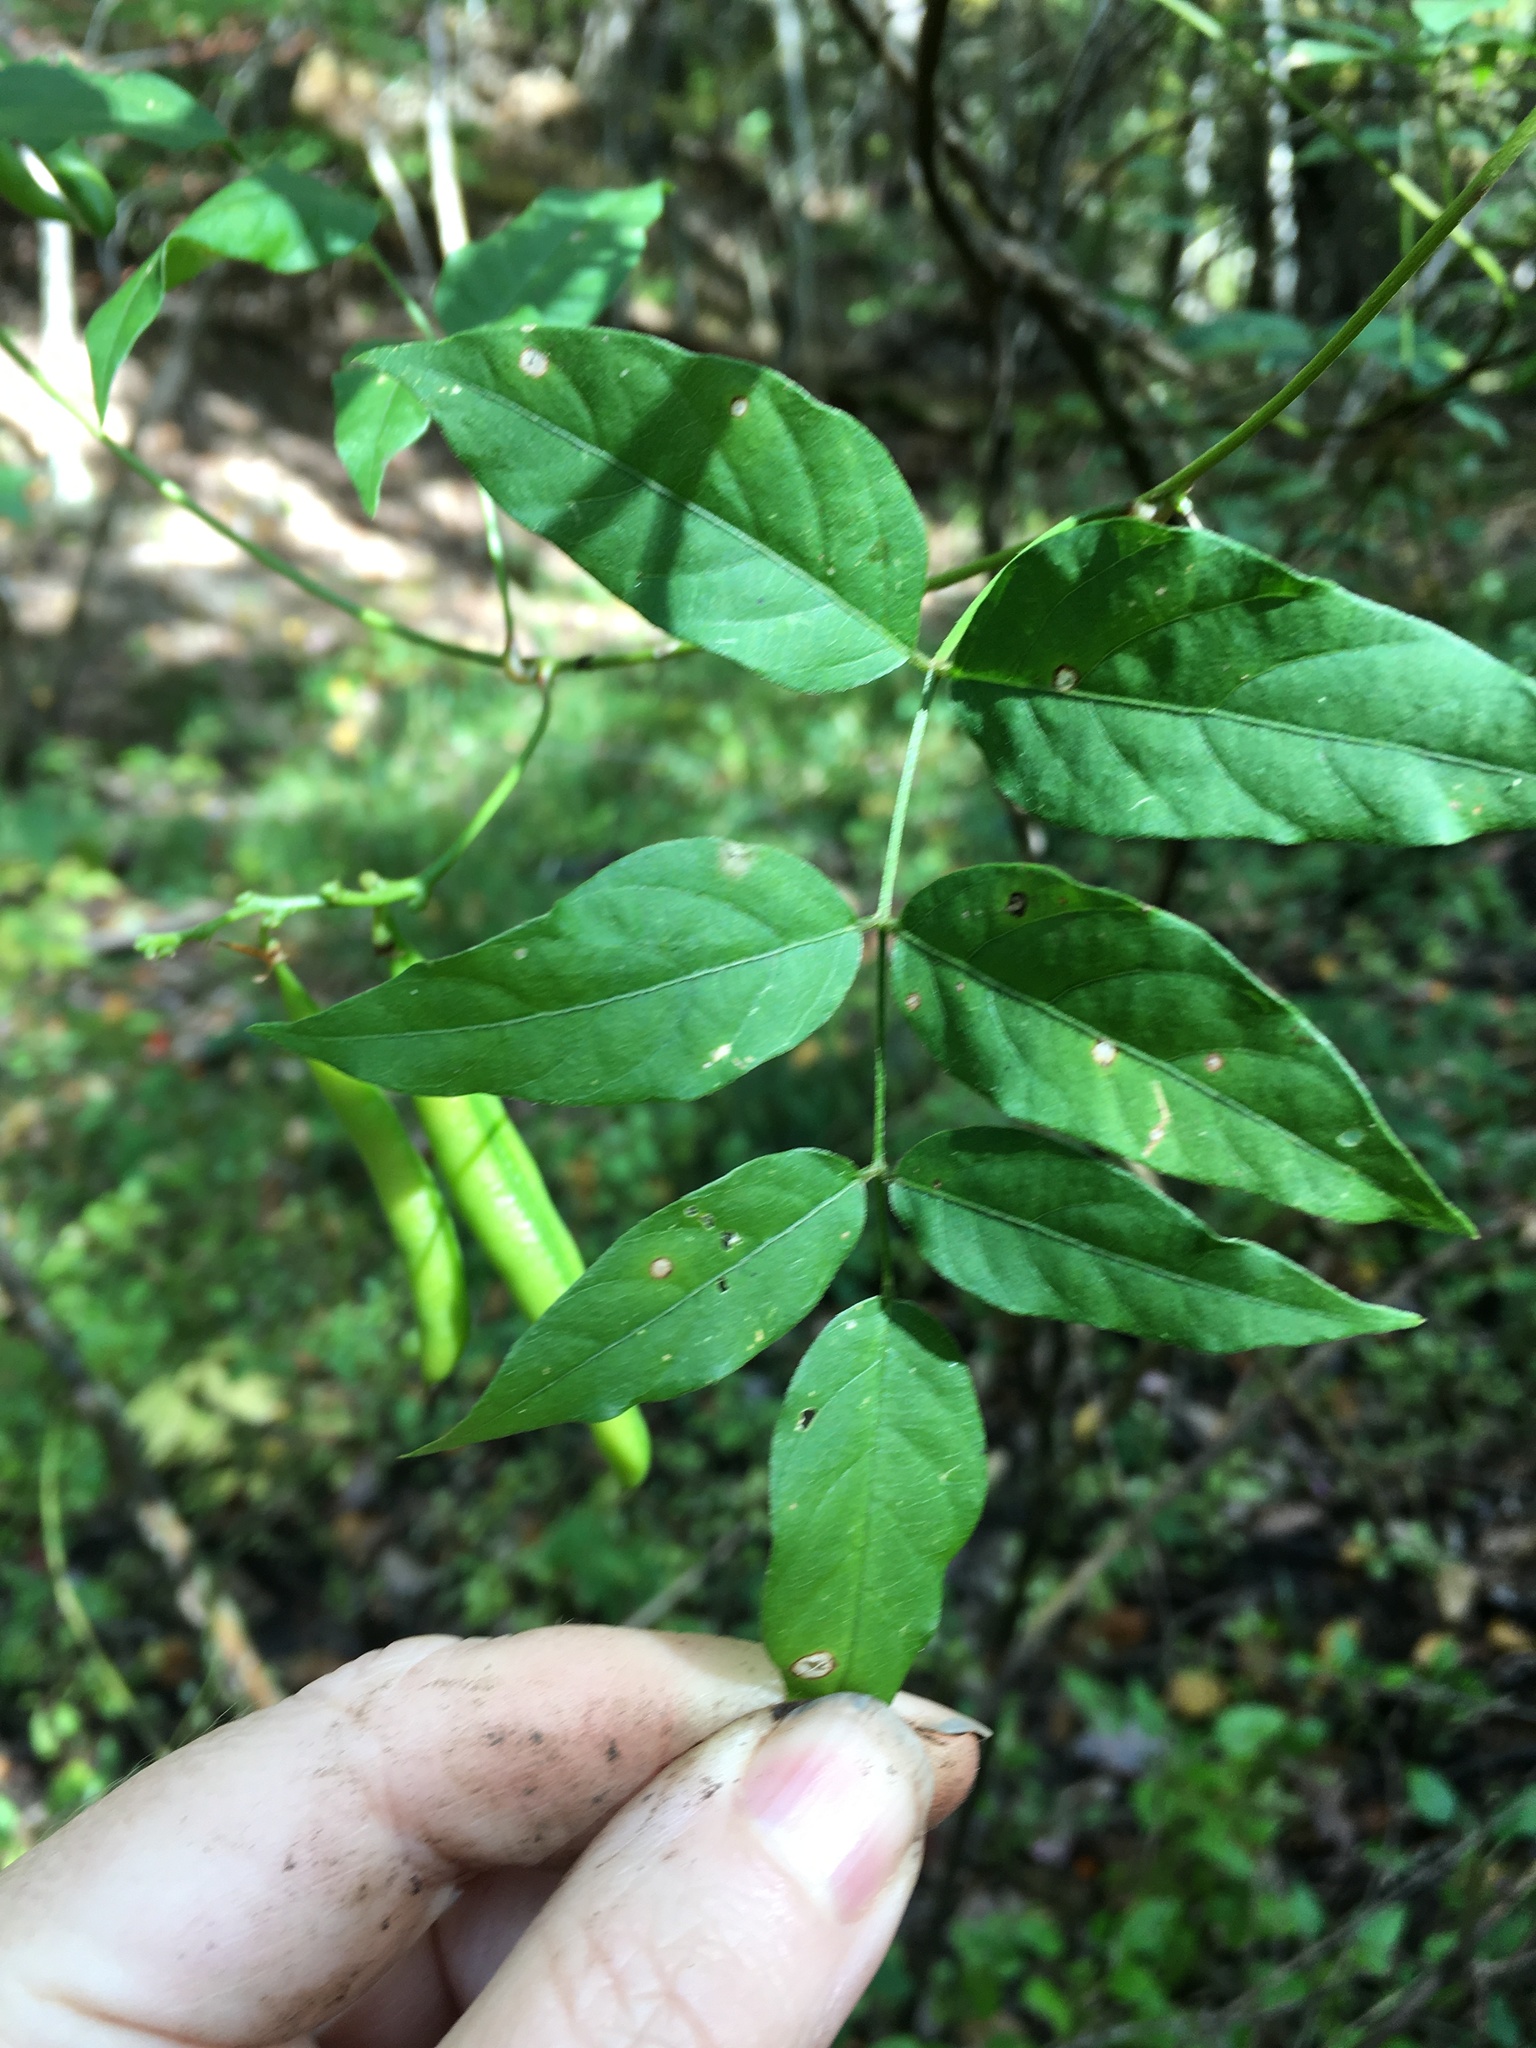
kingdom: Plantae
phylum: Tracheophyta
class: Magnoliopsida
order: Fabales
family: Fabaceae
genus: Apios
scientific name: Apios americana
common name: American potato-bean
